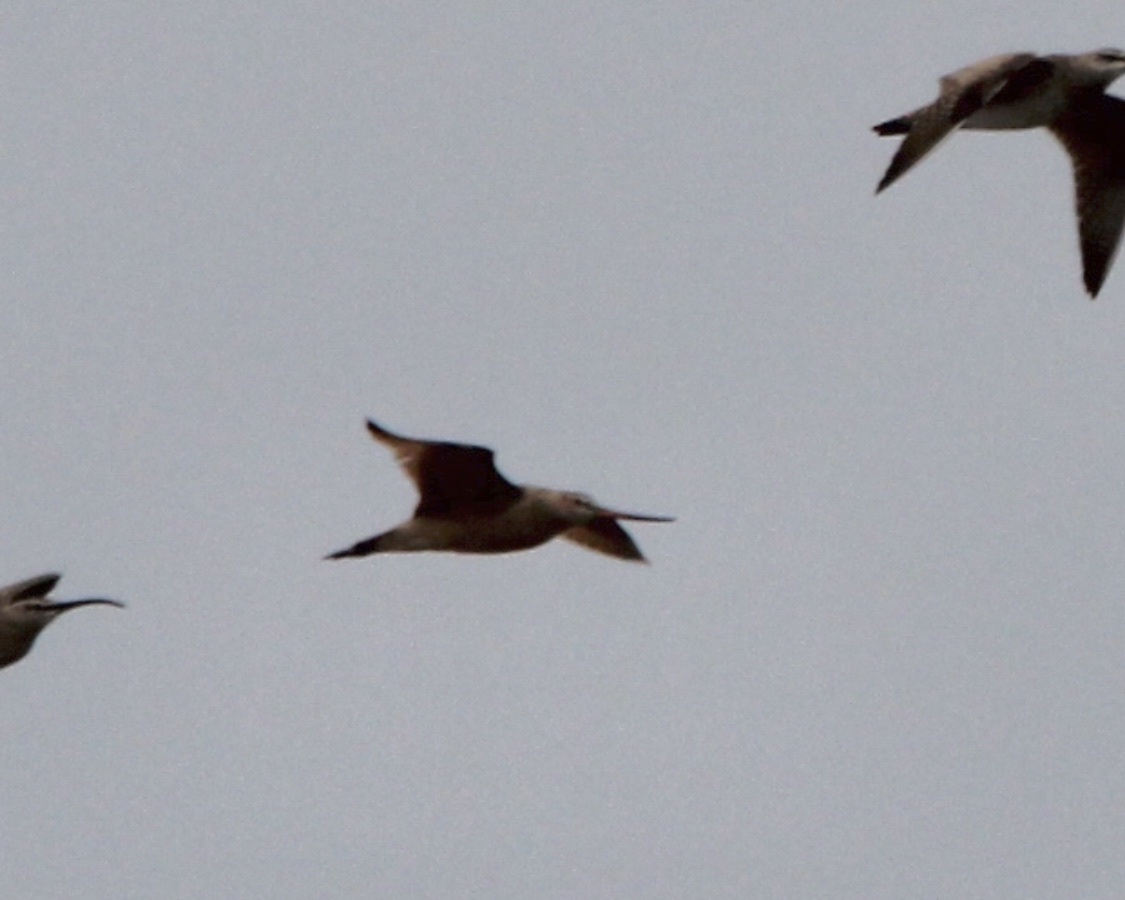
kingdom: Animalia
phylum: Chordata
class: Aves
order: Charadriiformes
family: Scolopacidae
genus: Limosa
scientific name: Limosa fedoa
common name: Marbled godwit
